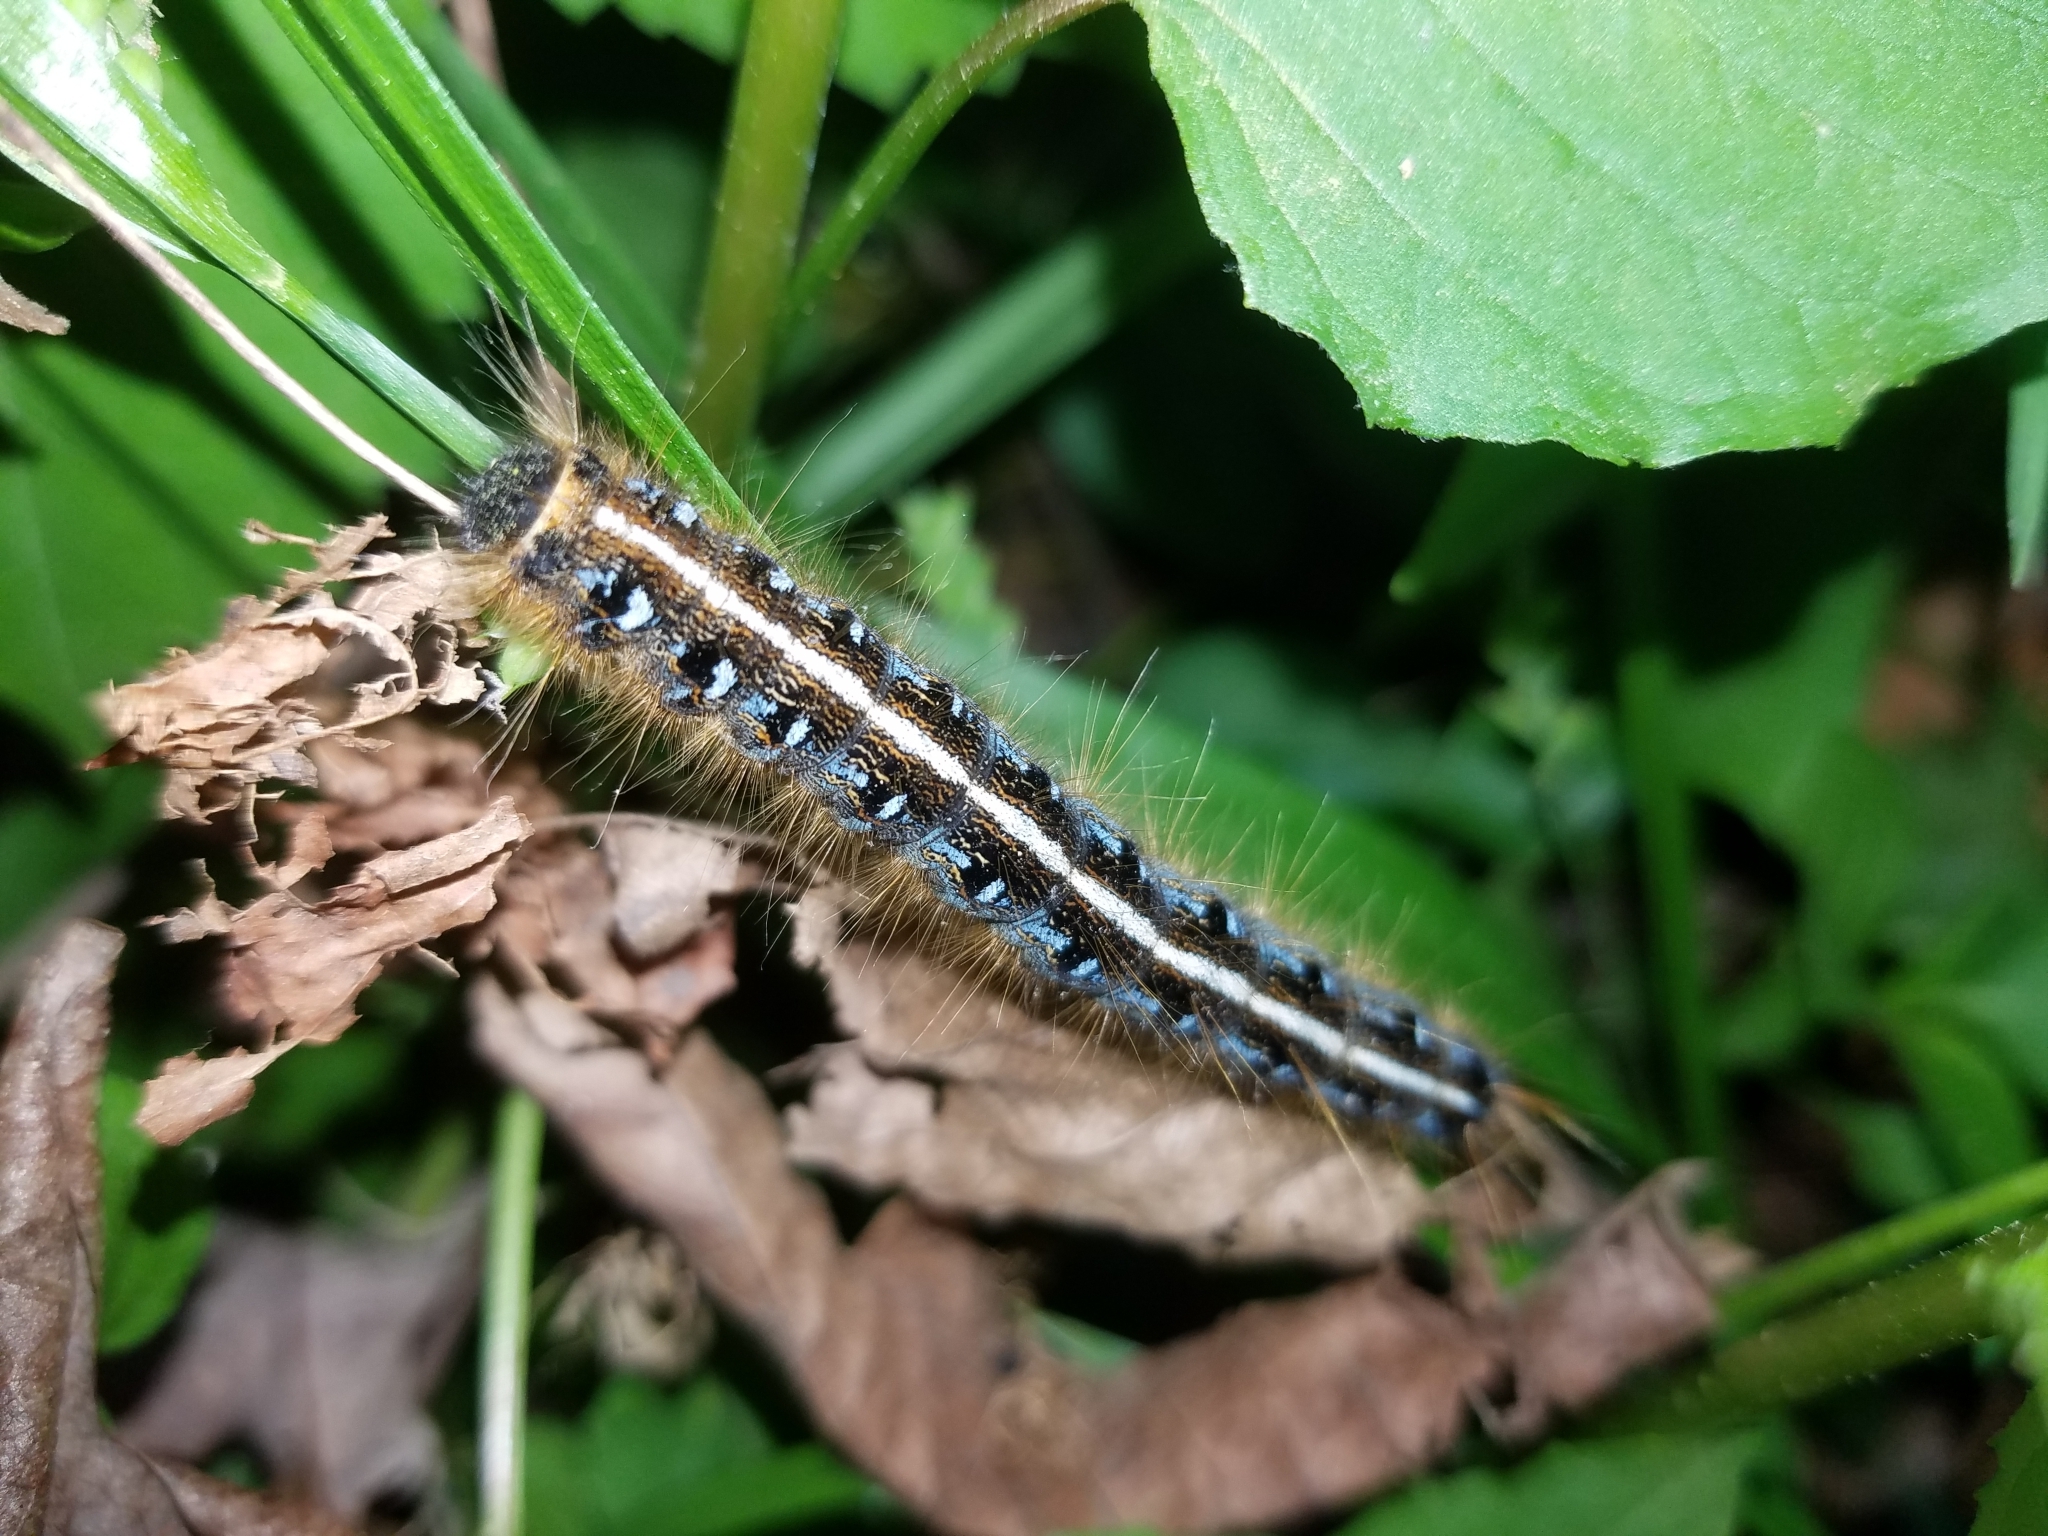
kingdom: Animalia
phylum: Arthropoda
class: Insecta
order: Lepidoptera
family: Lasiocampidae
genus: Malacosoma
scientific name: Malacosoma americana
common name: Eastern tent caterpillar moth
